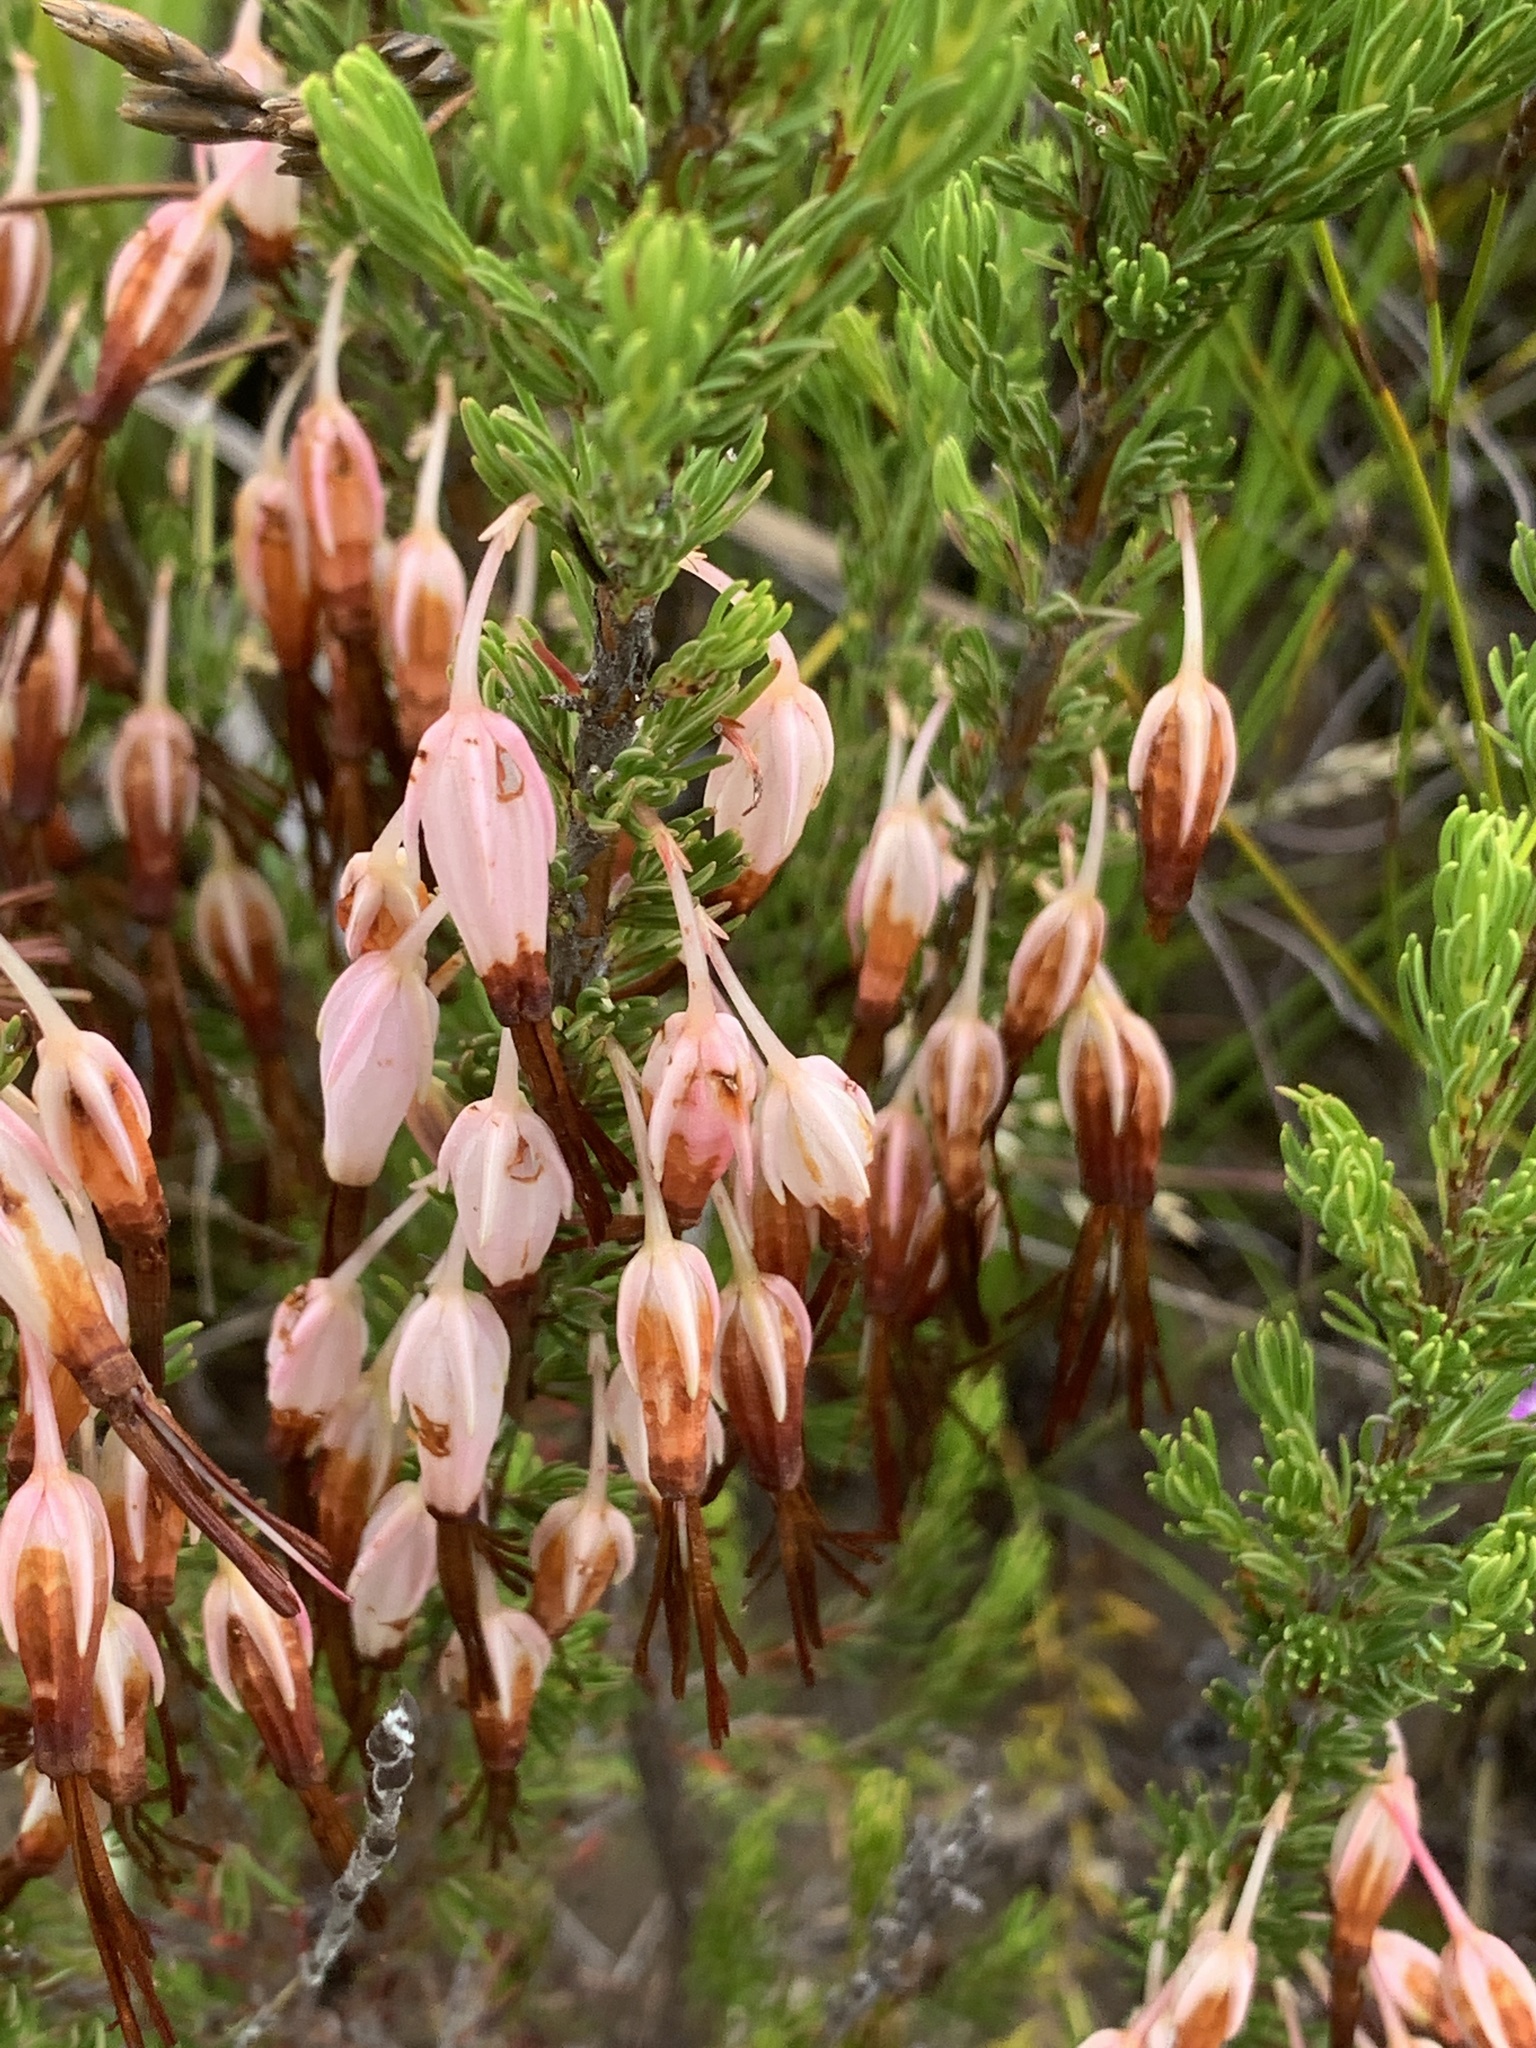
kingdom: Plantae
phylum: Tracheophyta
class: Magnoliopsida
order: Ericales
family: Ericaceae
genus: Erica
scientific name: Erica plukenetii
